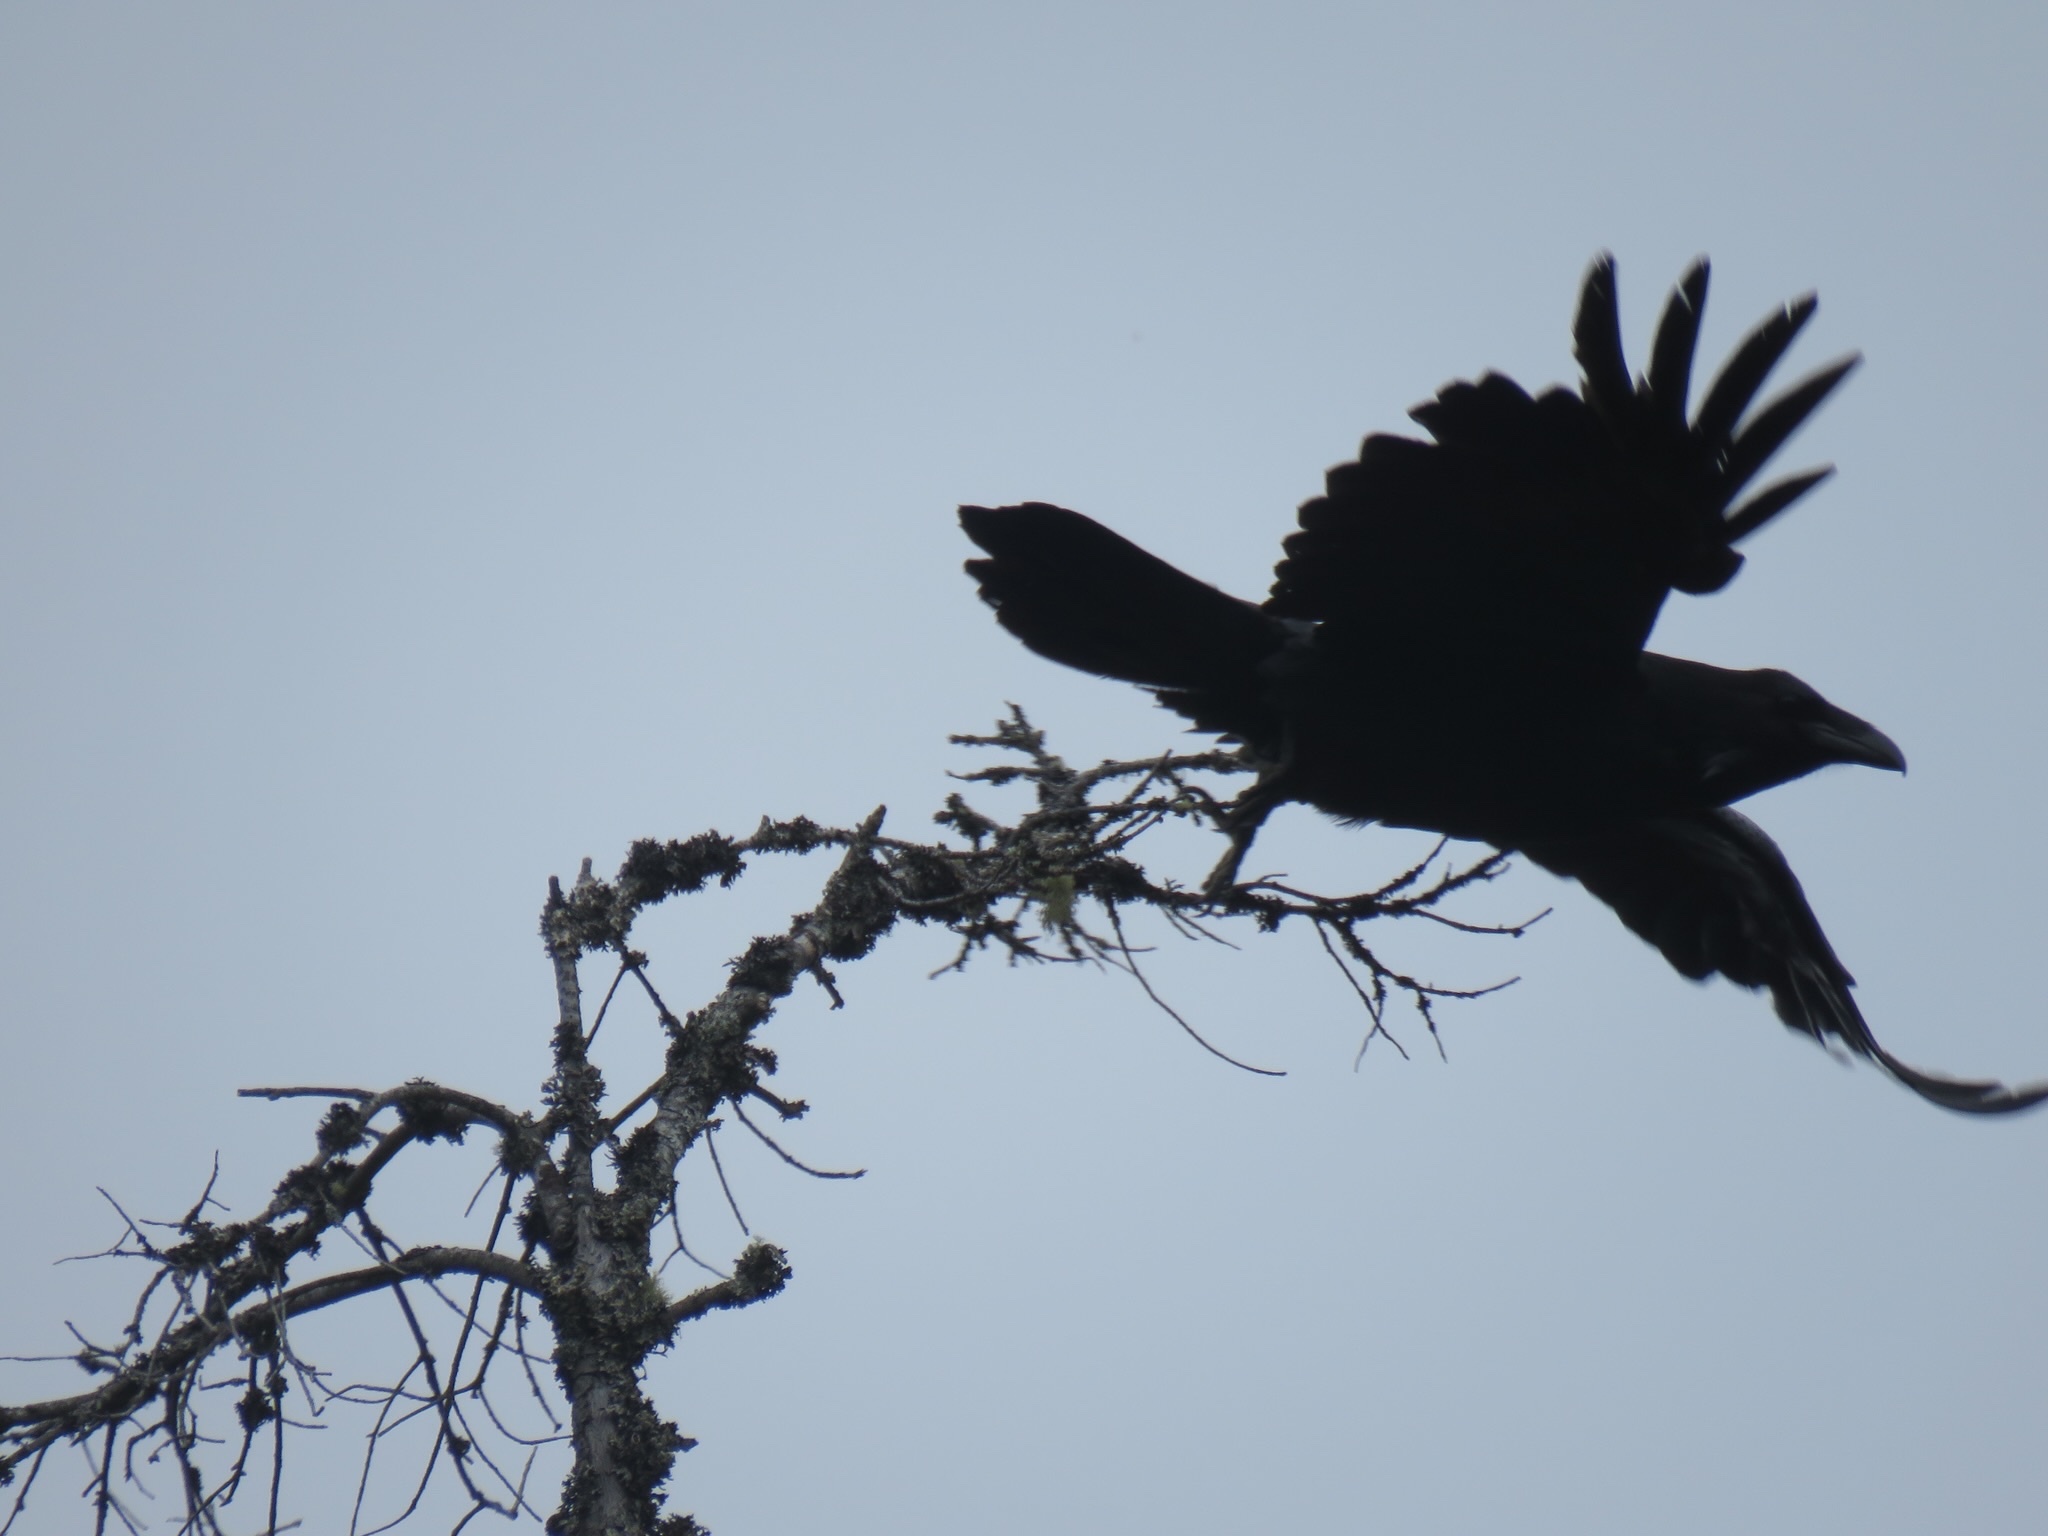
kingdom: Animalia
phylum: Chordata
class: Aves
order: Passeriformes
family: Corvidae
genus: Corvus
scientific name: Corvus corax
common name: Common raven
